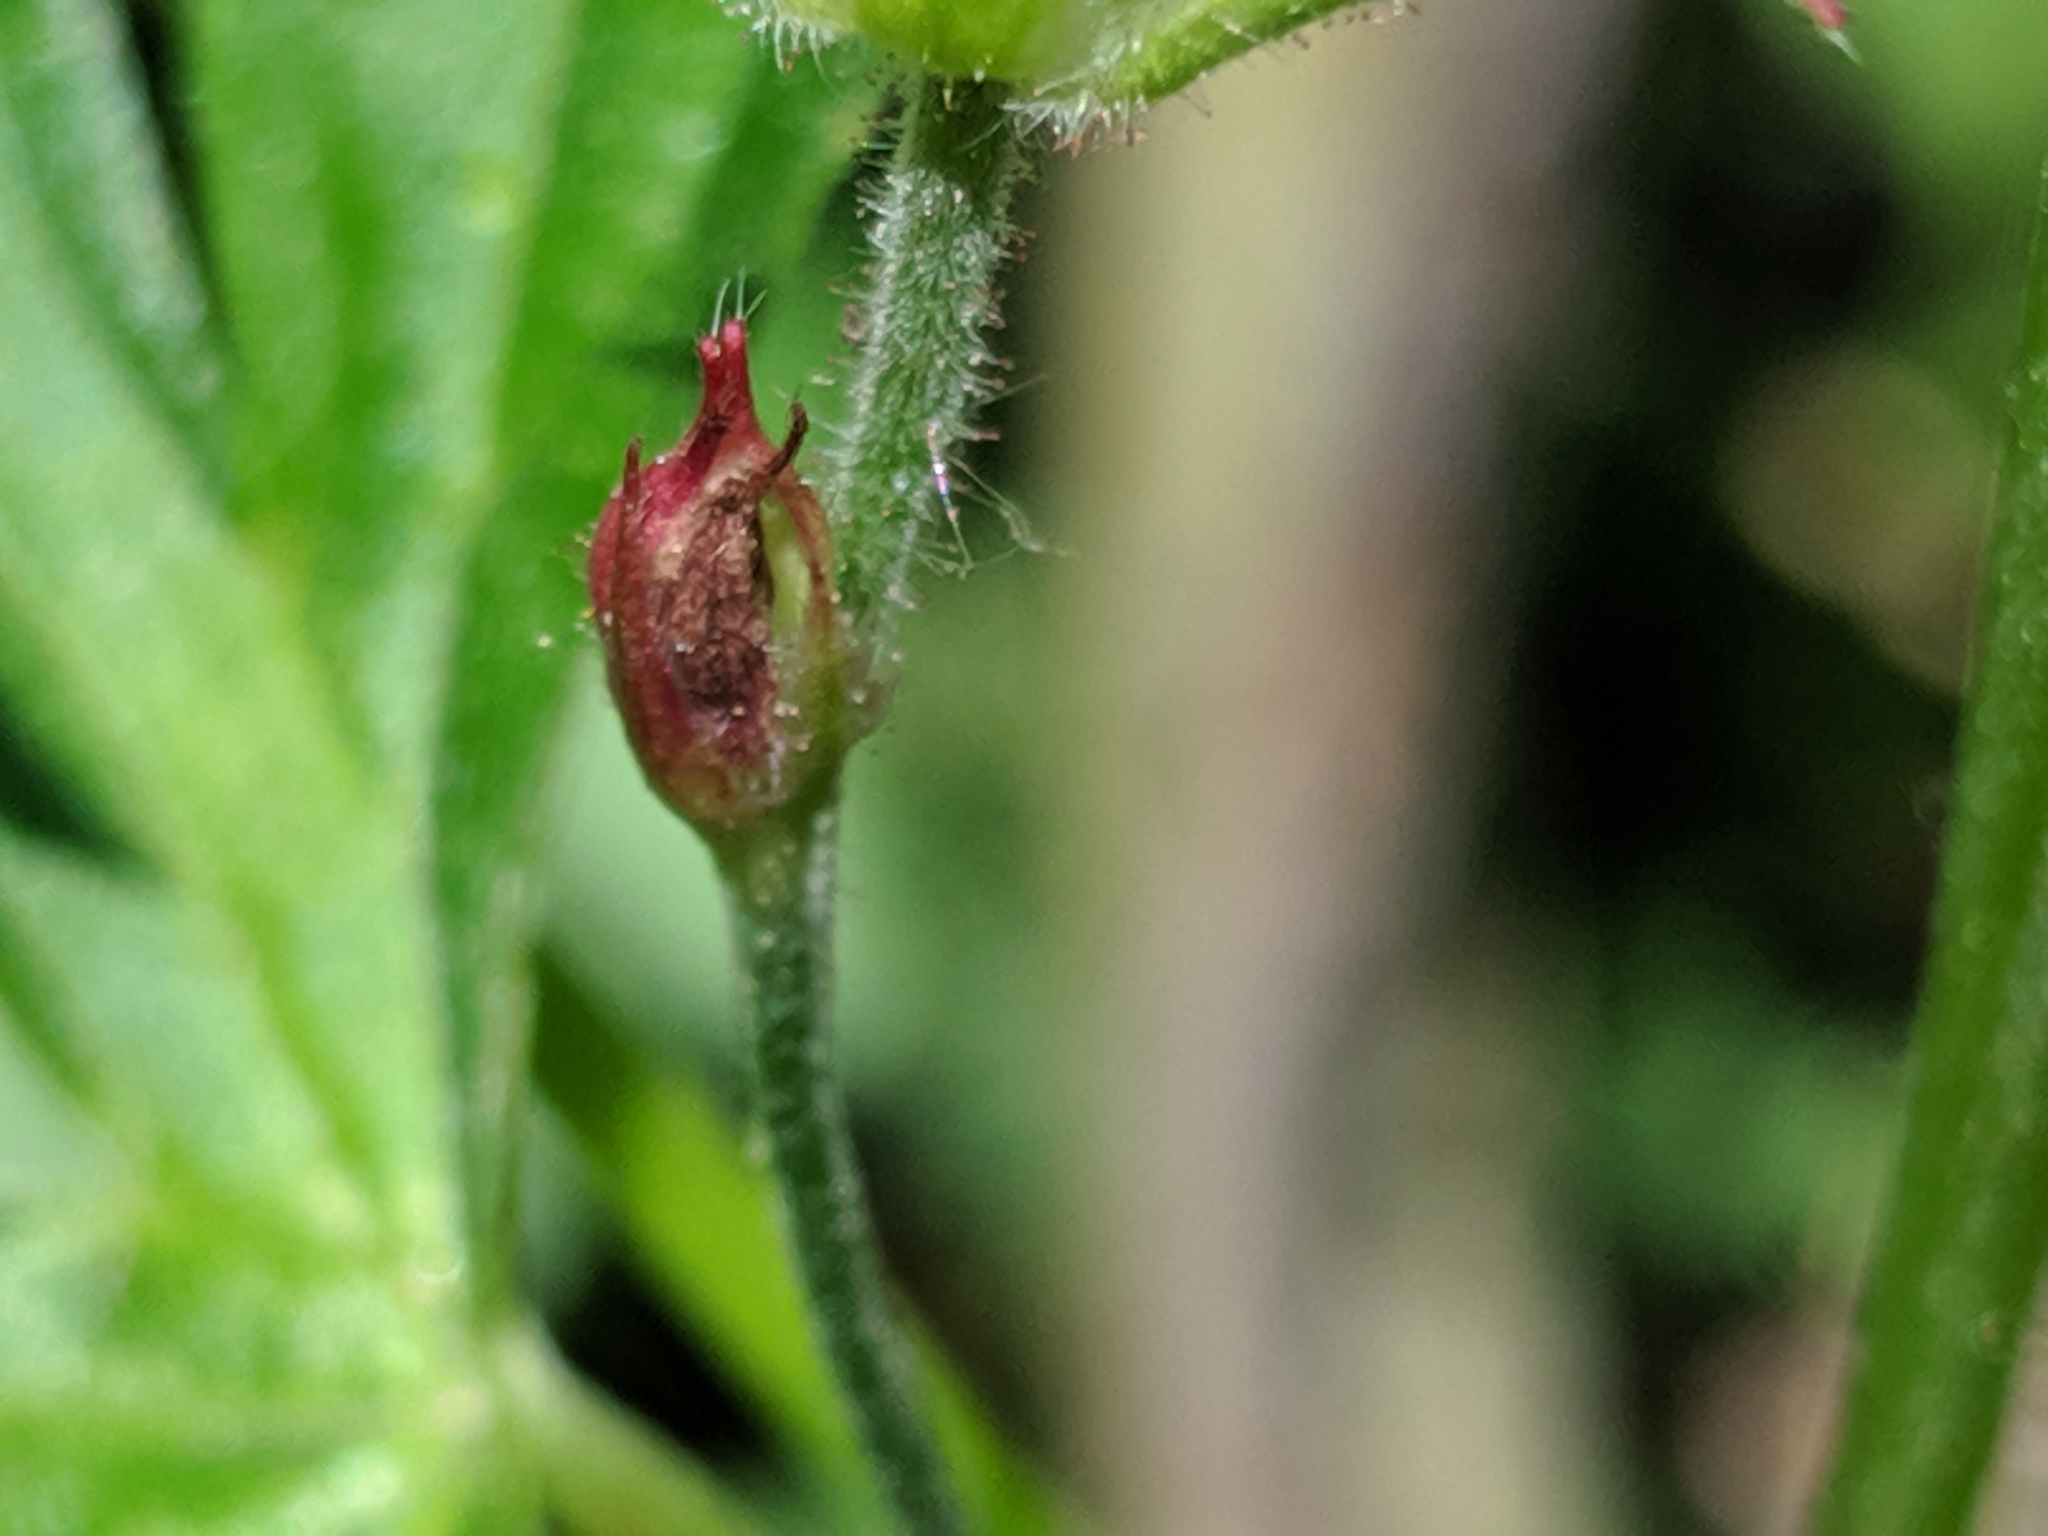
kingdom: Plantae
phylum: Tracheophyta
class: Magnoliopsida
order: Geraniales
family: Geraniaceae
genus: Geranium
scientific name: Geranium richardsonii
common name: Richardson's crane's-bill
